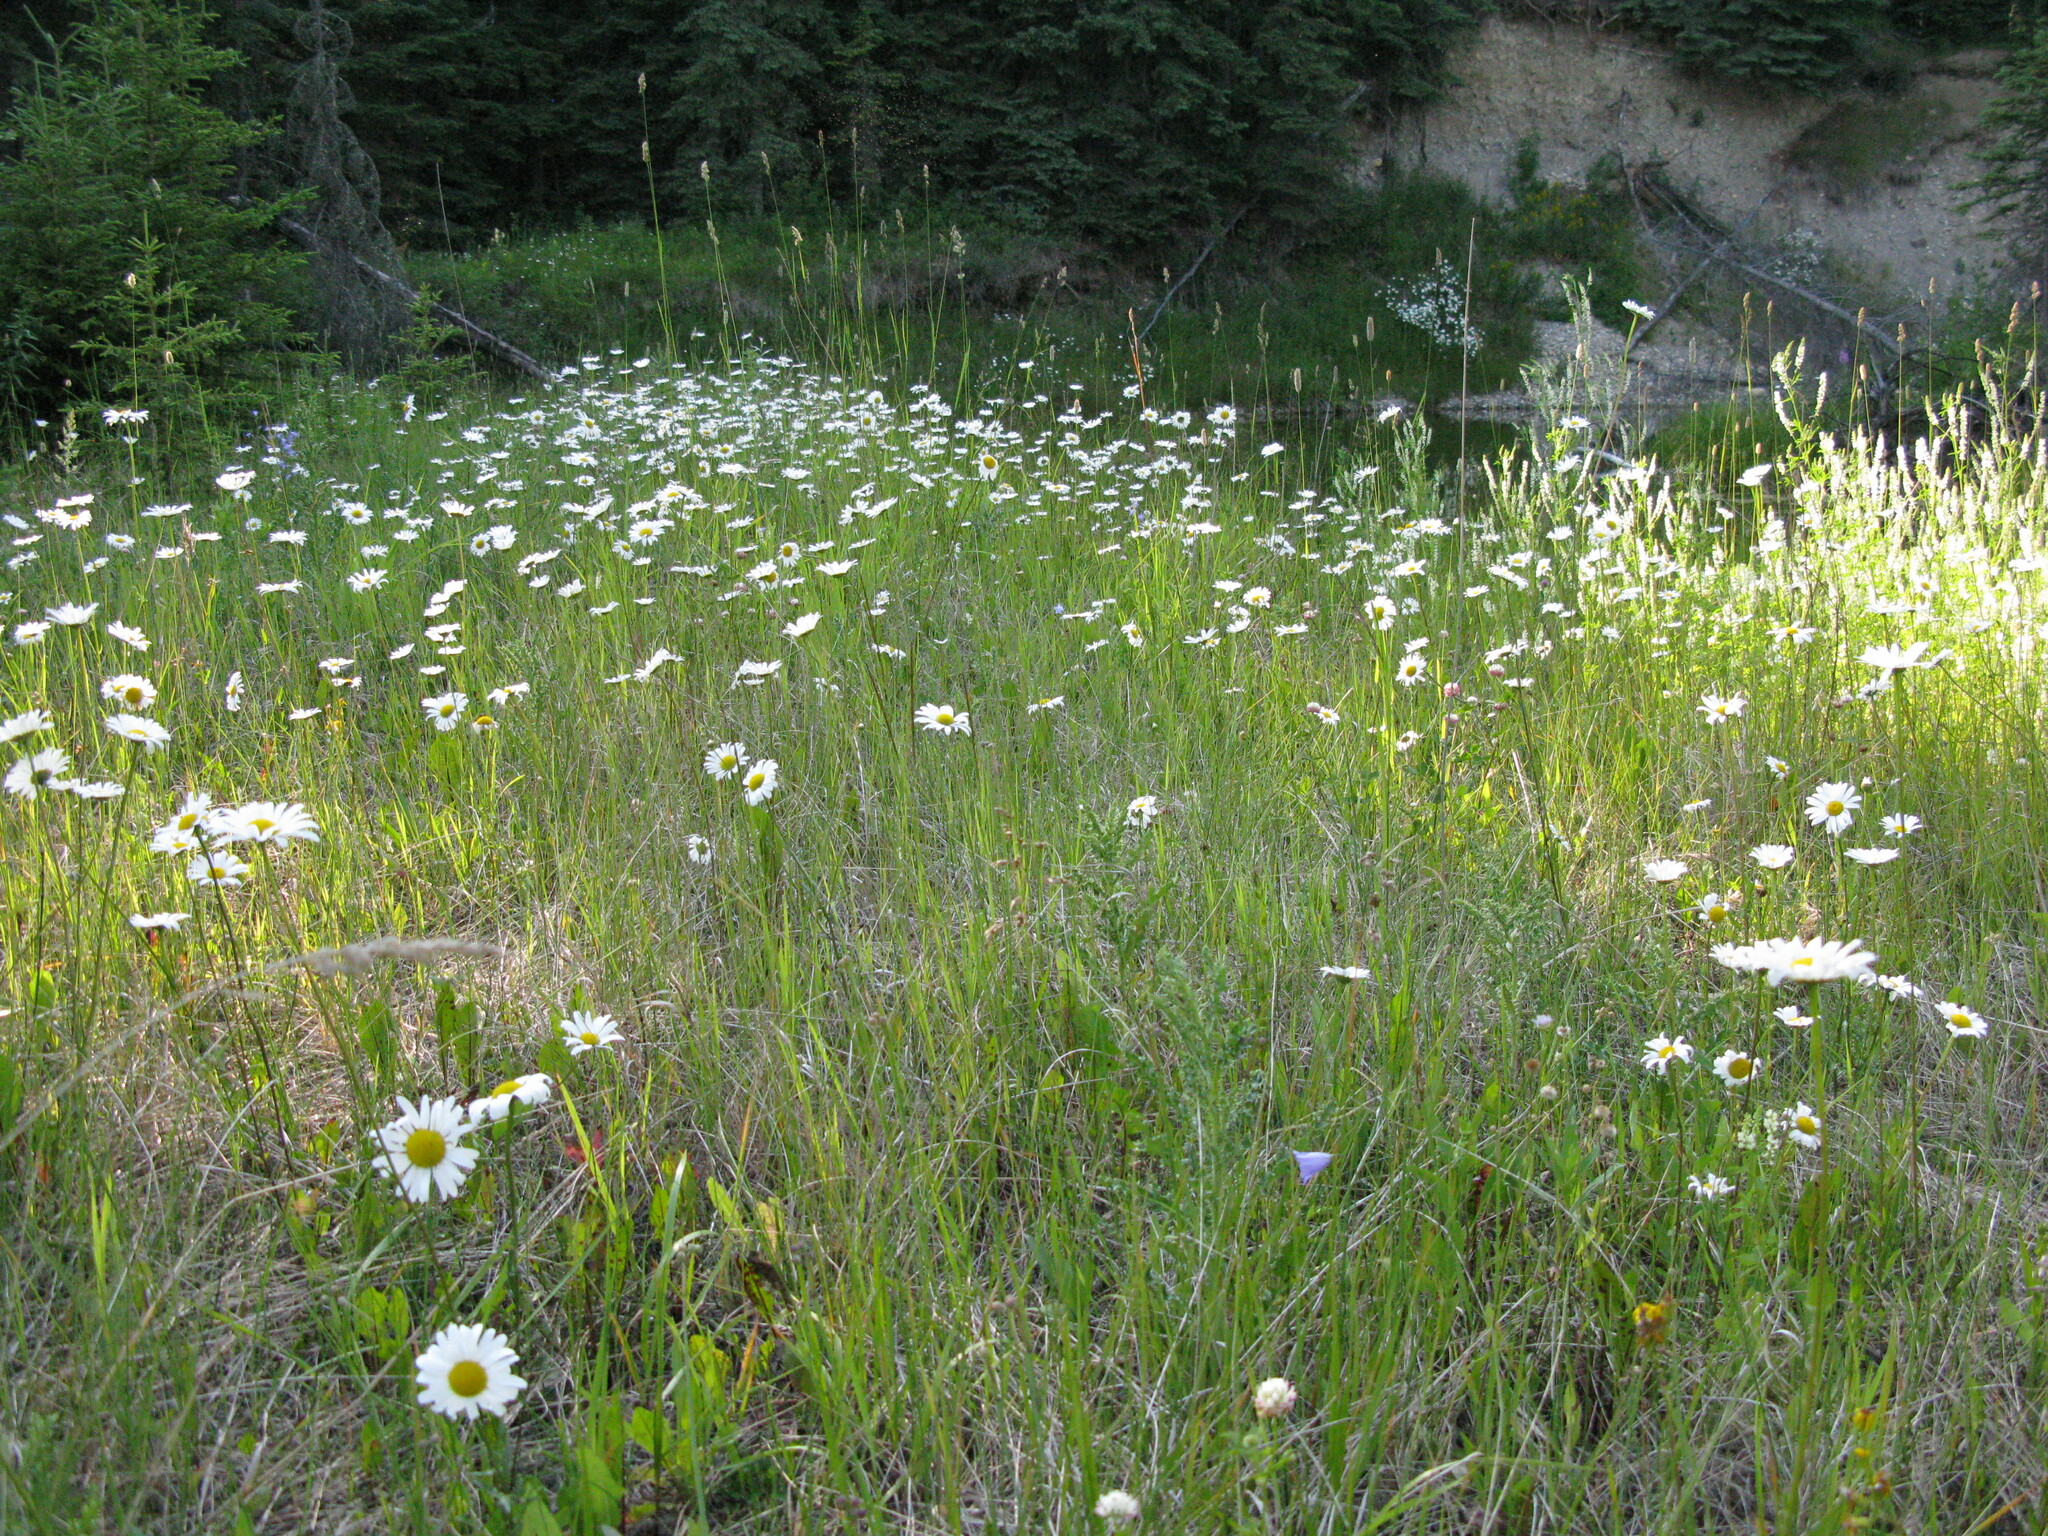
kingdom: Plantae
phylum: Tracheophyta
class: Magnoliopsida
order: Asterales
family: Asteraceae
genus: Leucanthemum
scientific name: Leucanthemum vulgare
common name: Oxeye daisy
